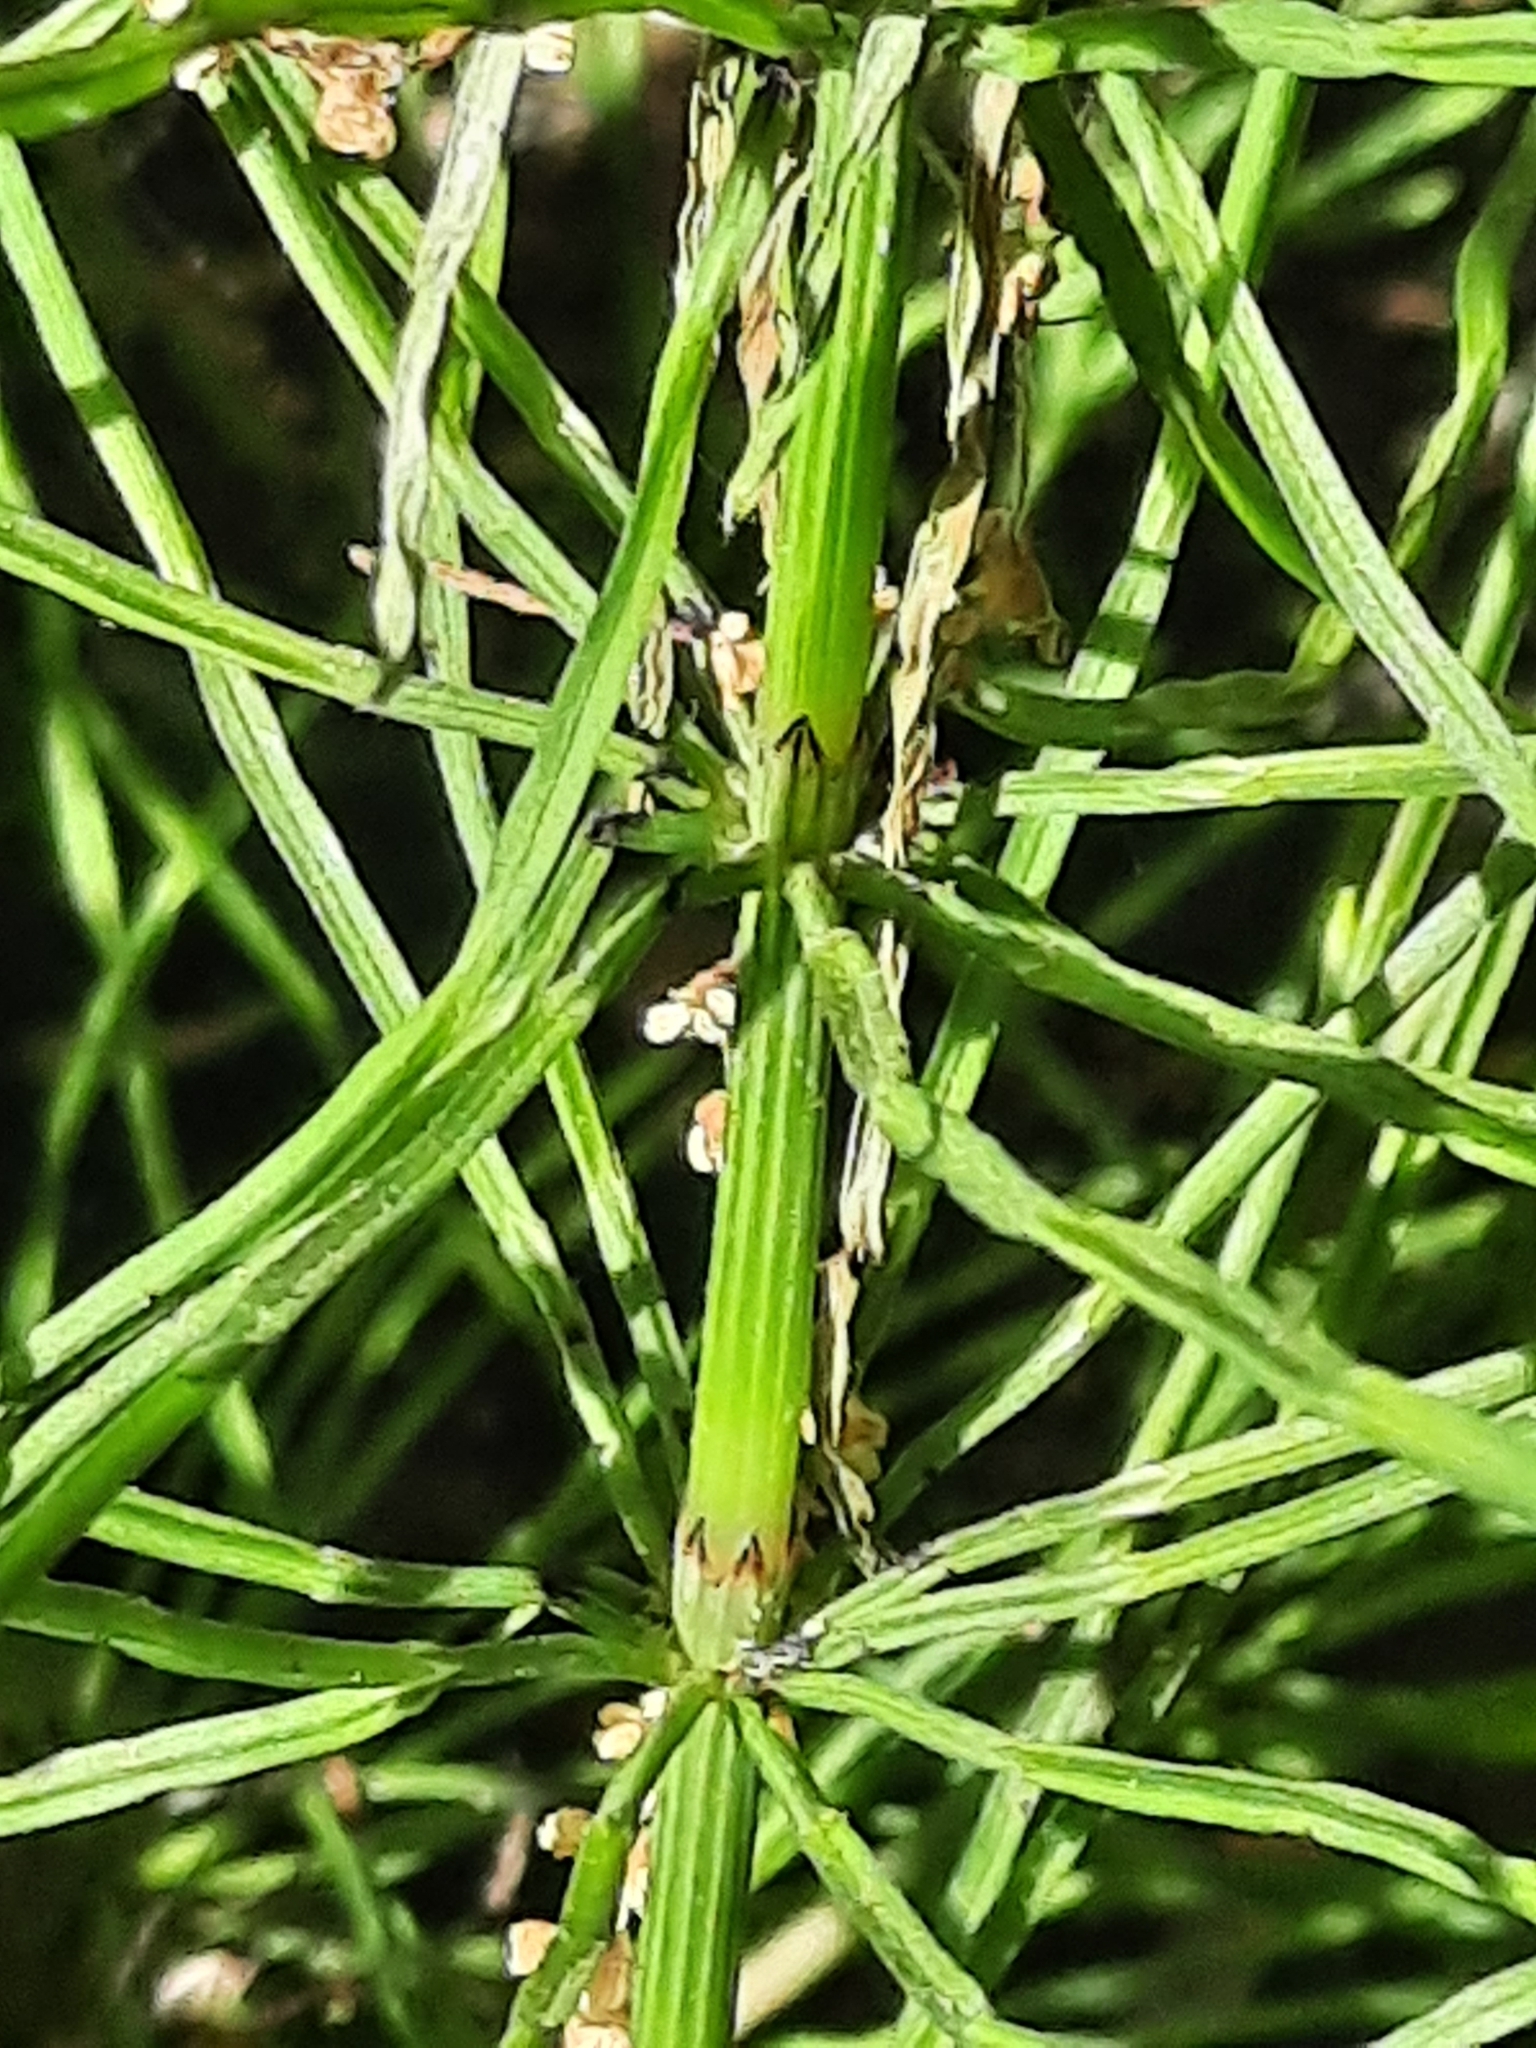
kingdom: Plantae
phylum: Tracheophyta
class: Polypodiopsida
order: Equisetales
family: Equisetaceae
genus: Equisetum
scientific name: Equisetum arvense
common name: Field horsetail
